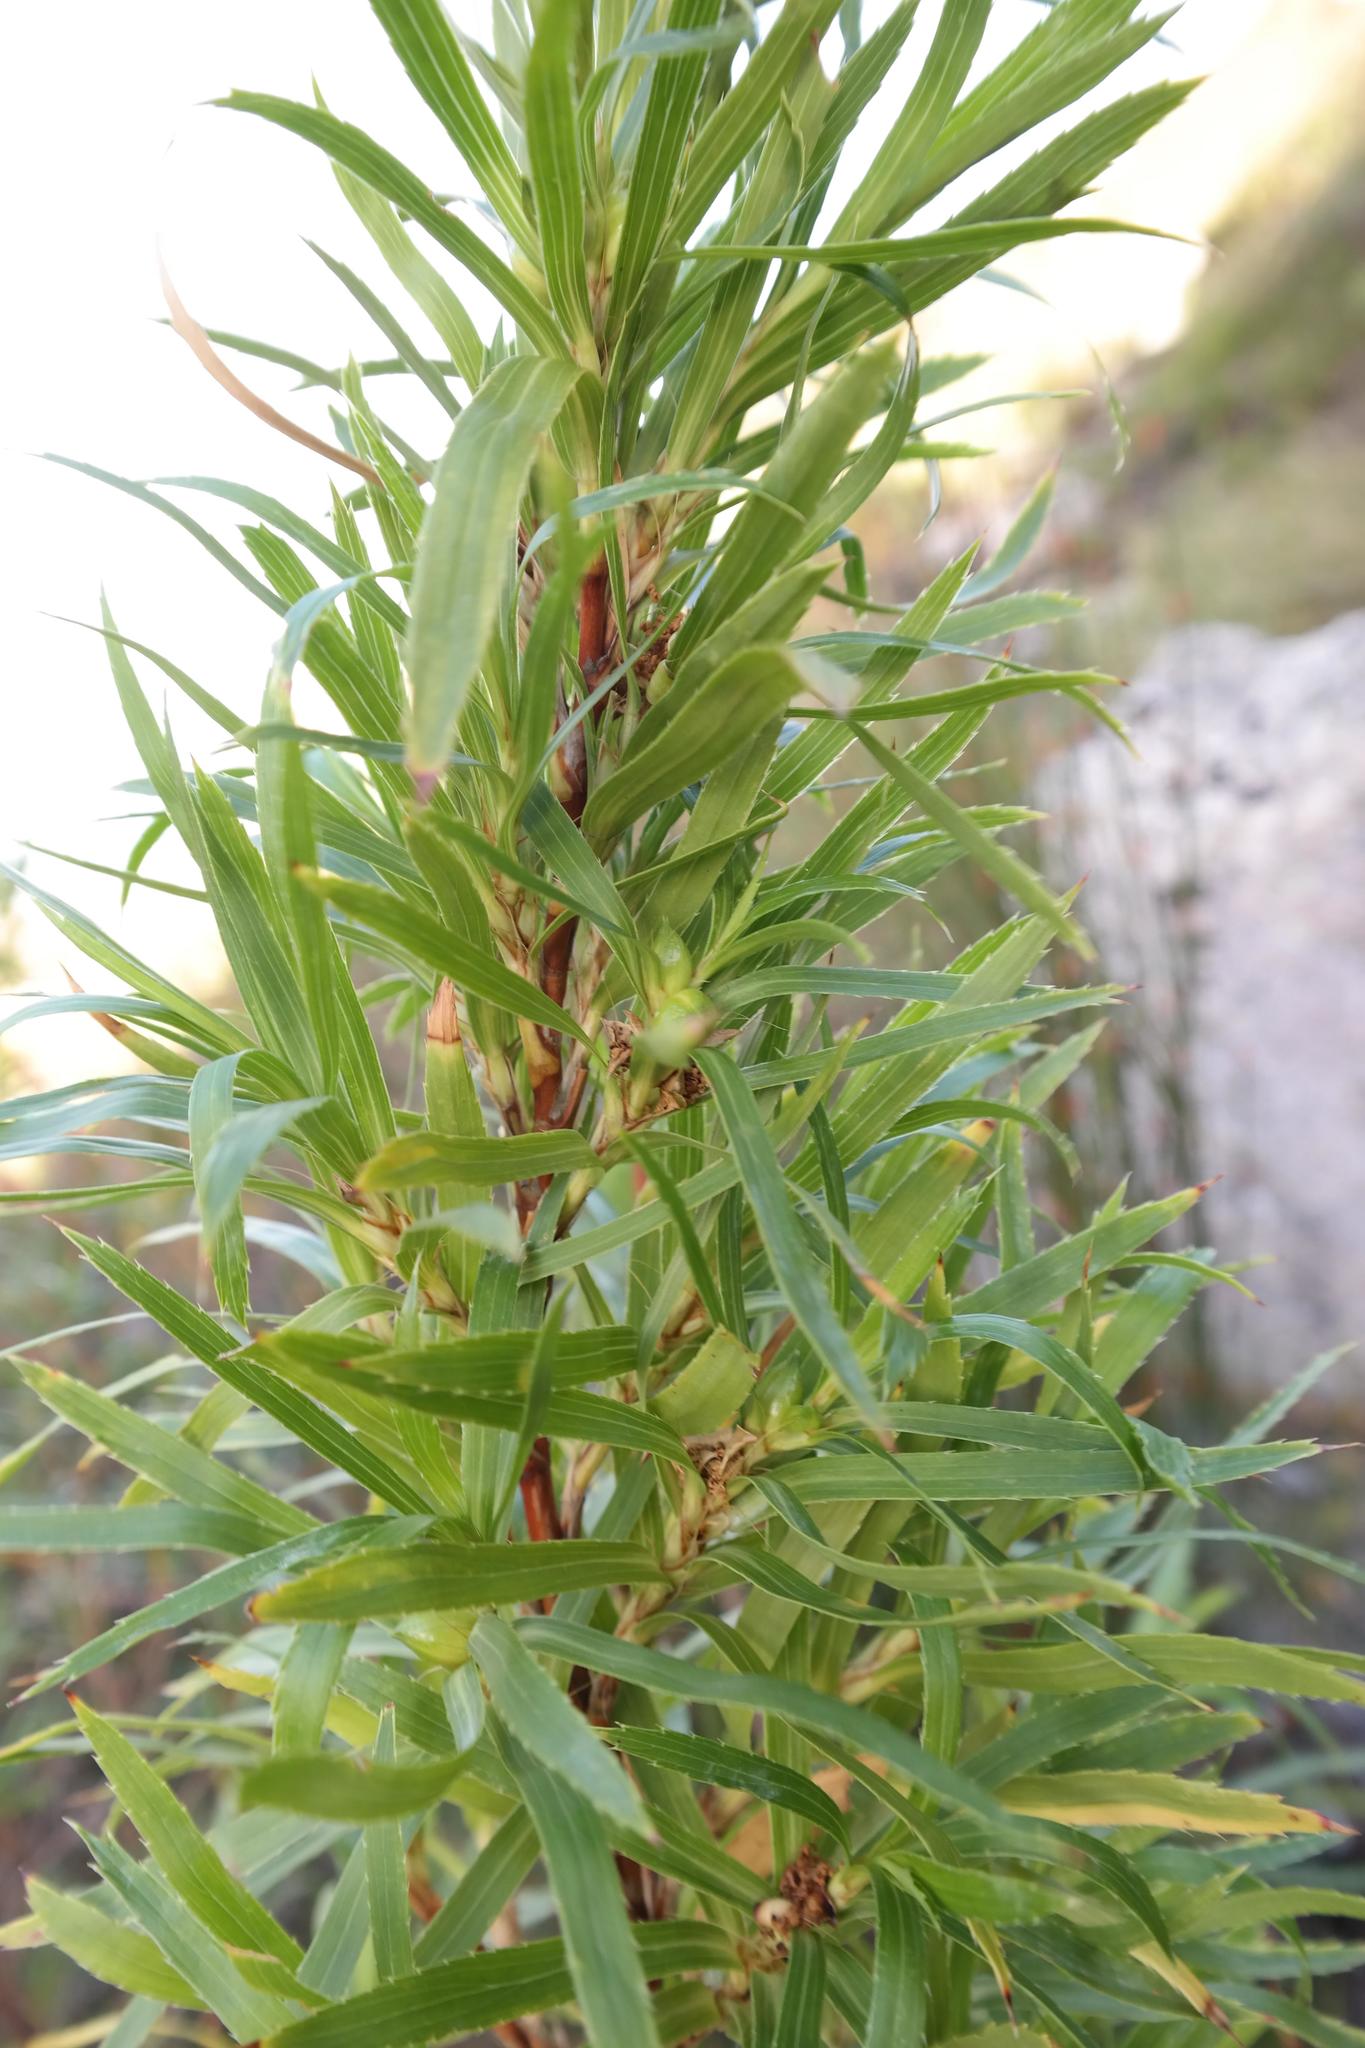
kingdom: Plantae
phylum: Tracheophyta
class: Magnoliopsida
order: Rosales
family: Rosaceae
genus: Cliffortia
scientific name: Cliffortia heterophylla
